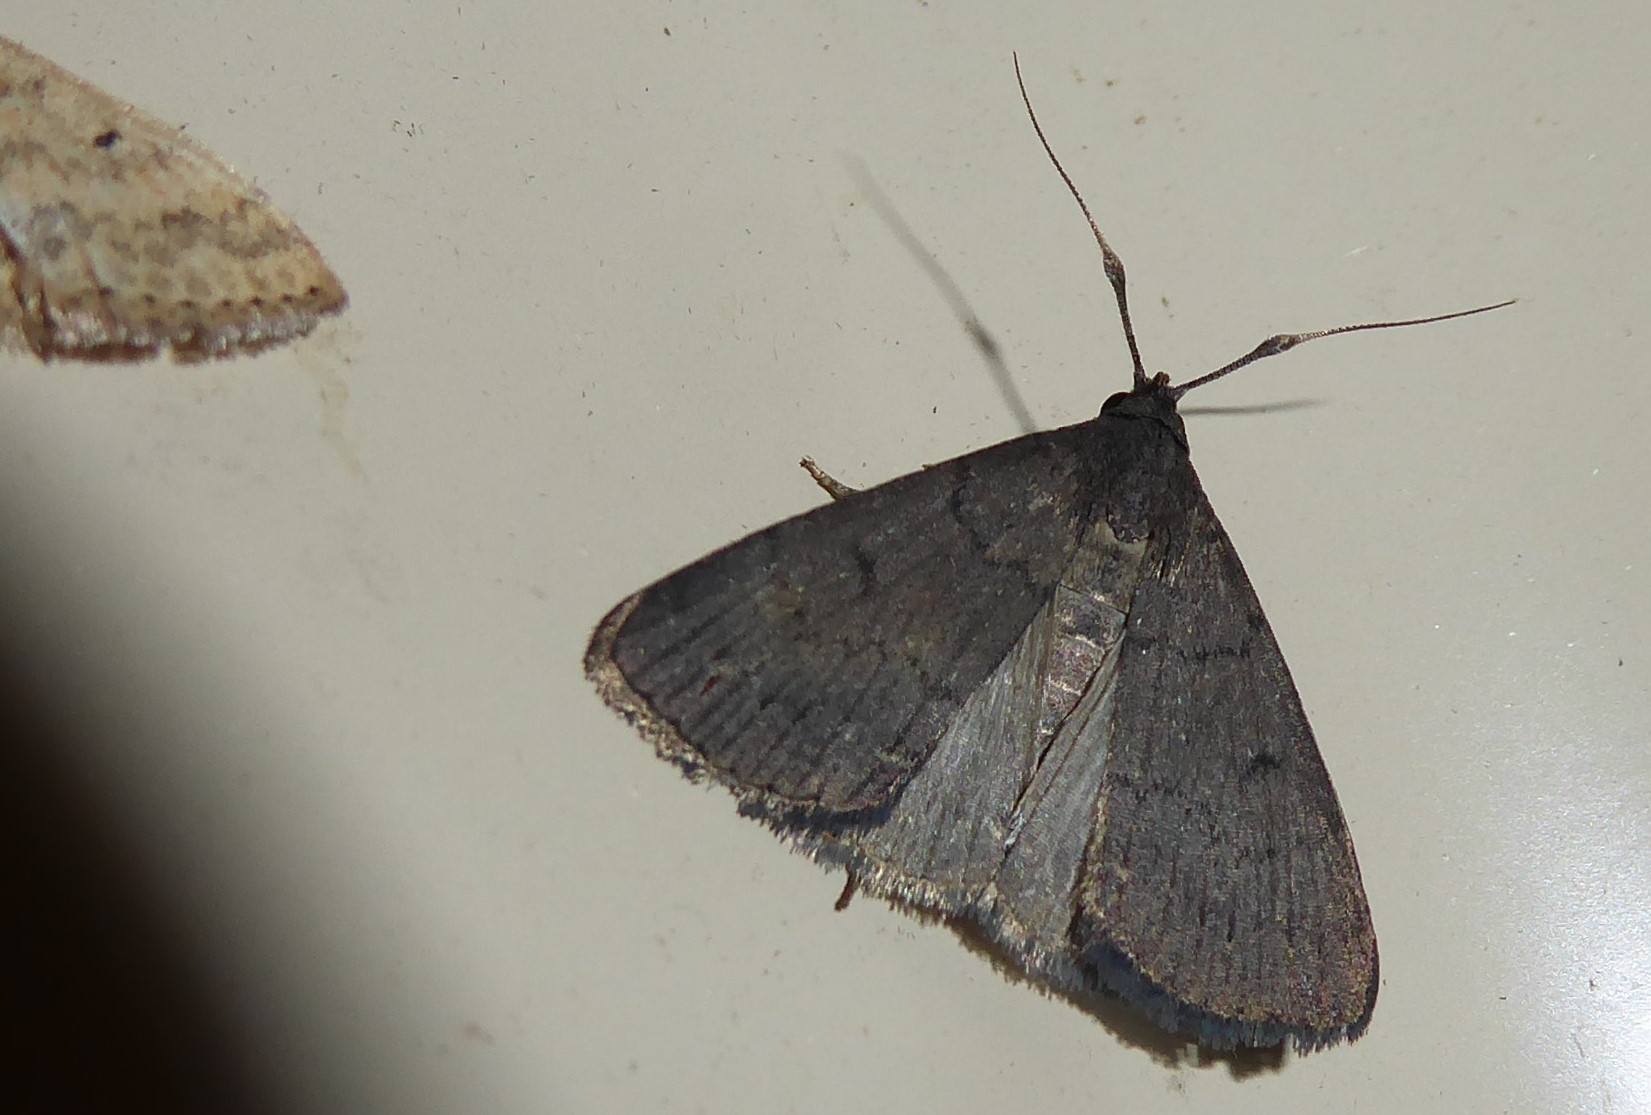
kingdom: Animalia
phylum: Arthropoda
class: Insecta
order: Lepidoptera
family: Erebidae
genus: Simplicia
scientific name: Simplicia cornicalis
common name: Tiki hut litter moth
